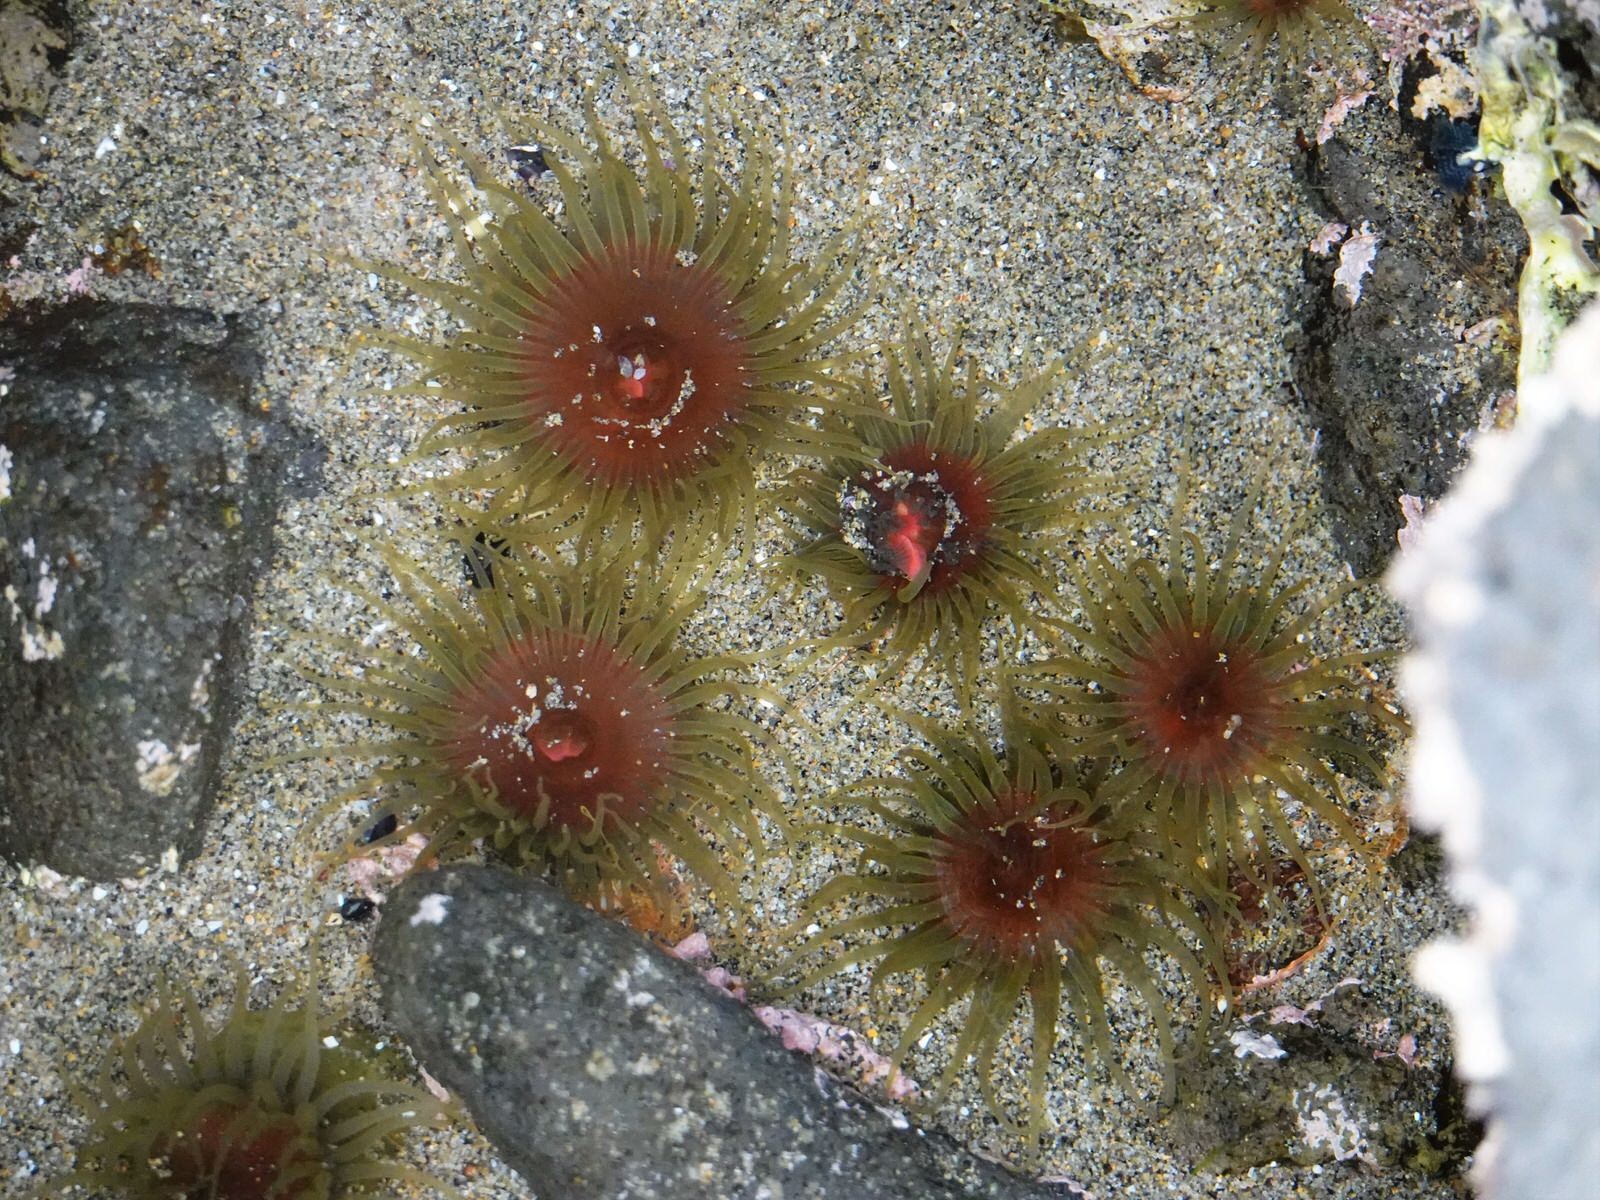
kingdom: Animalia
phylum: Cnidaria
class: Anthozoa
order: Actiniaria
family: Actiniidae
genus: Isactinia
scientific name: Isactinia olivacea
